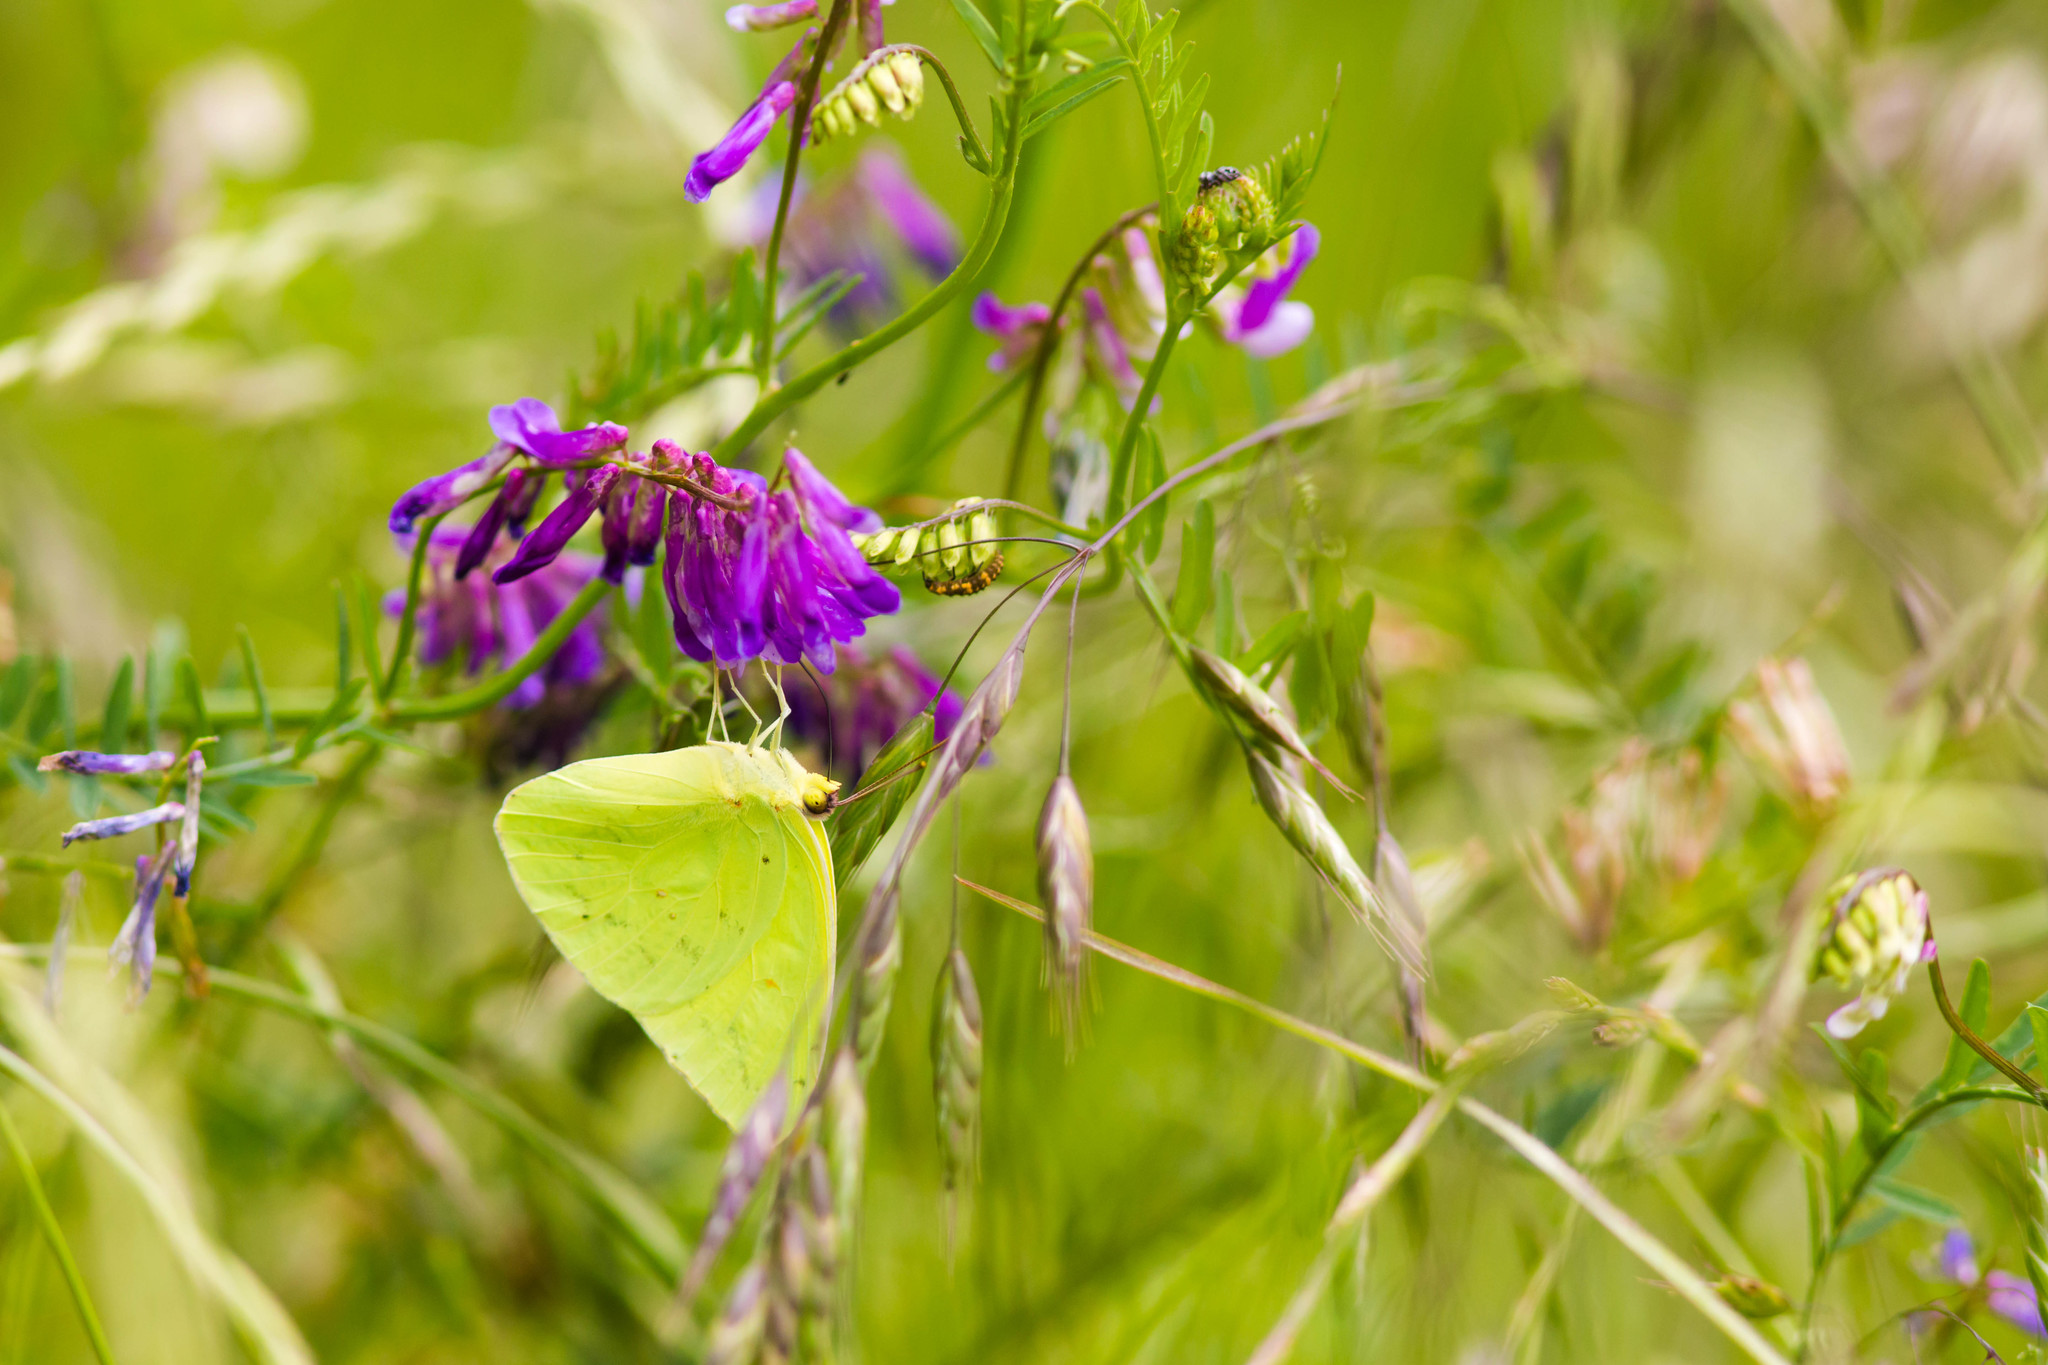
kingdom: Animalia
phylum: Arthropoda
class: Insecta
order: Lepidoptera
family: Pieridae
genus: Phoebis
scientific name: Phoebis sennae
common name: Cloudless sulphur
